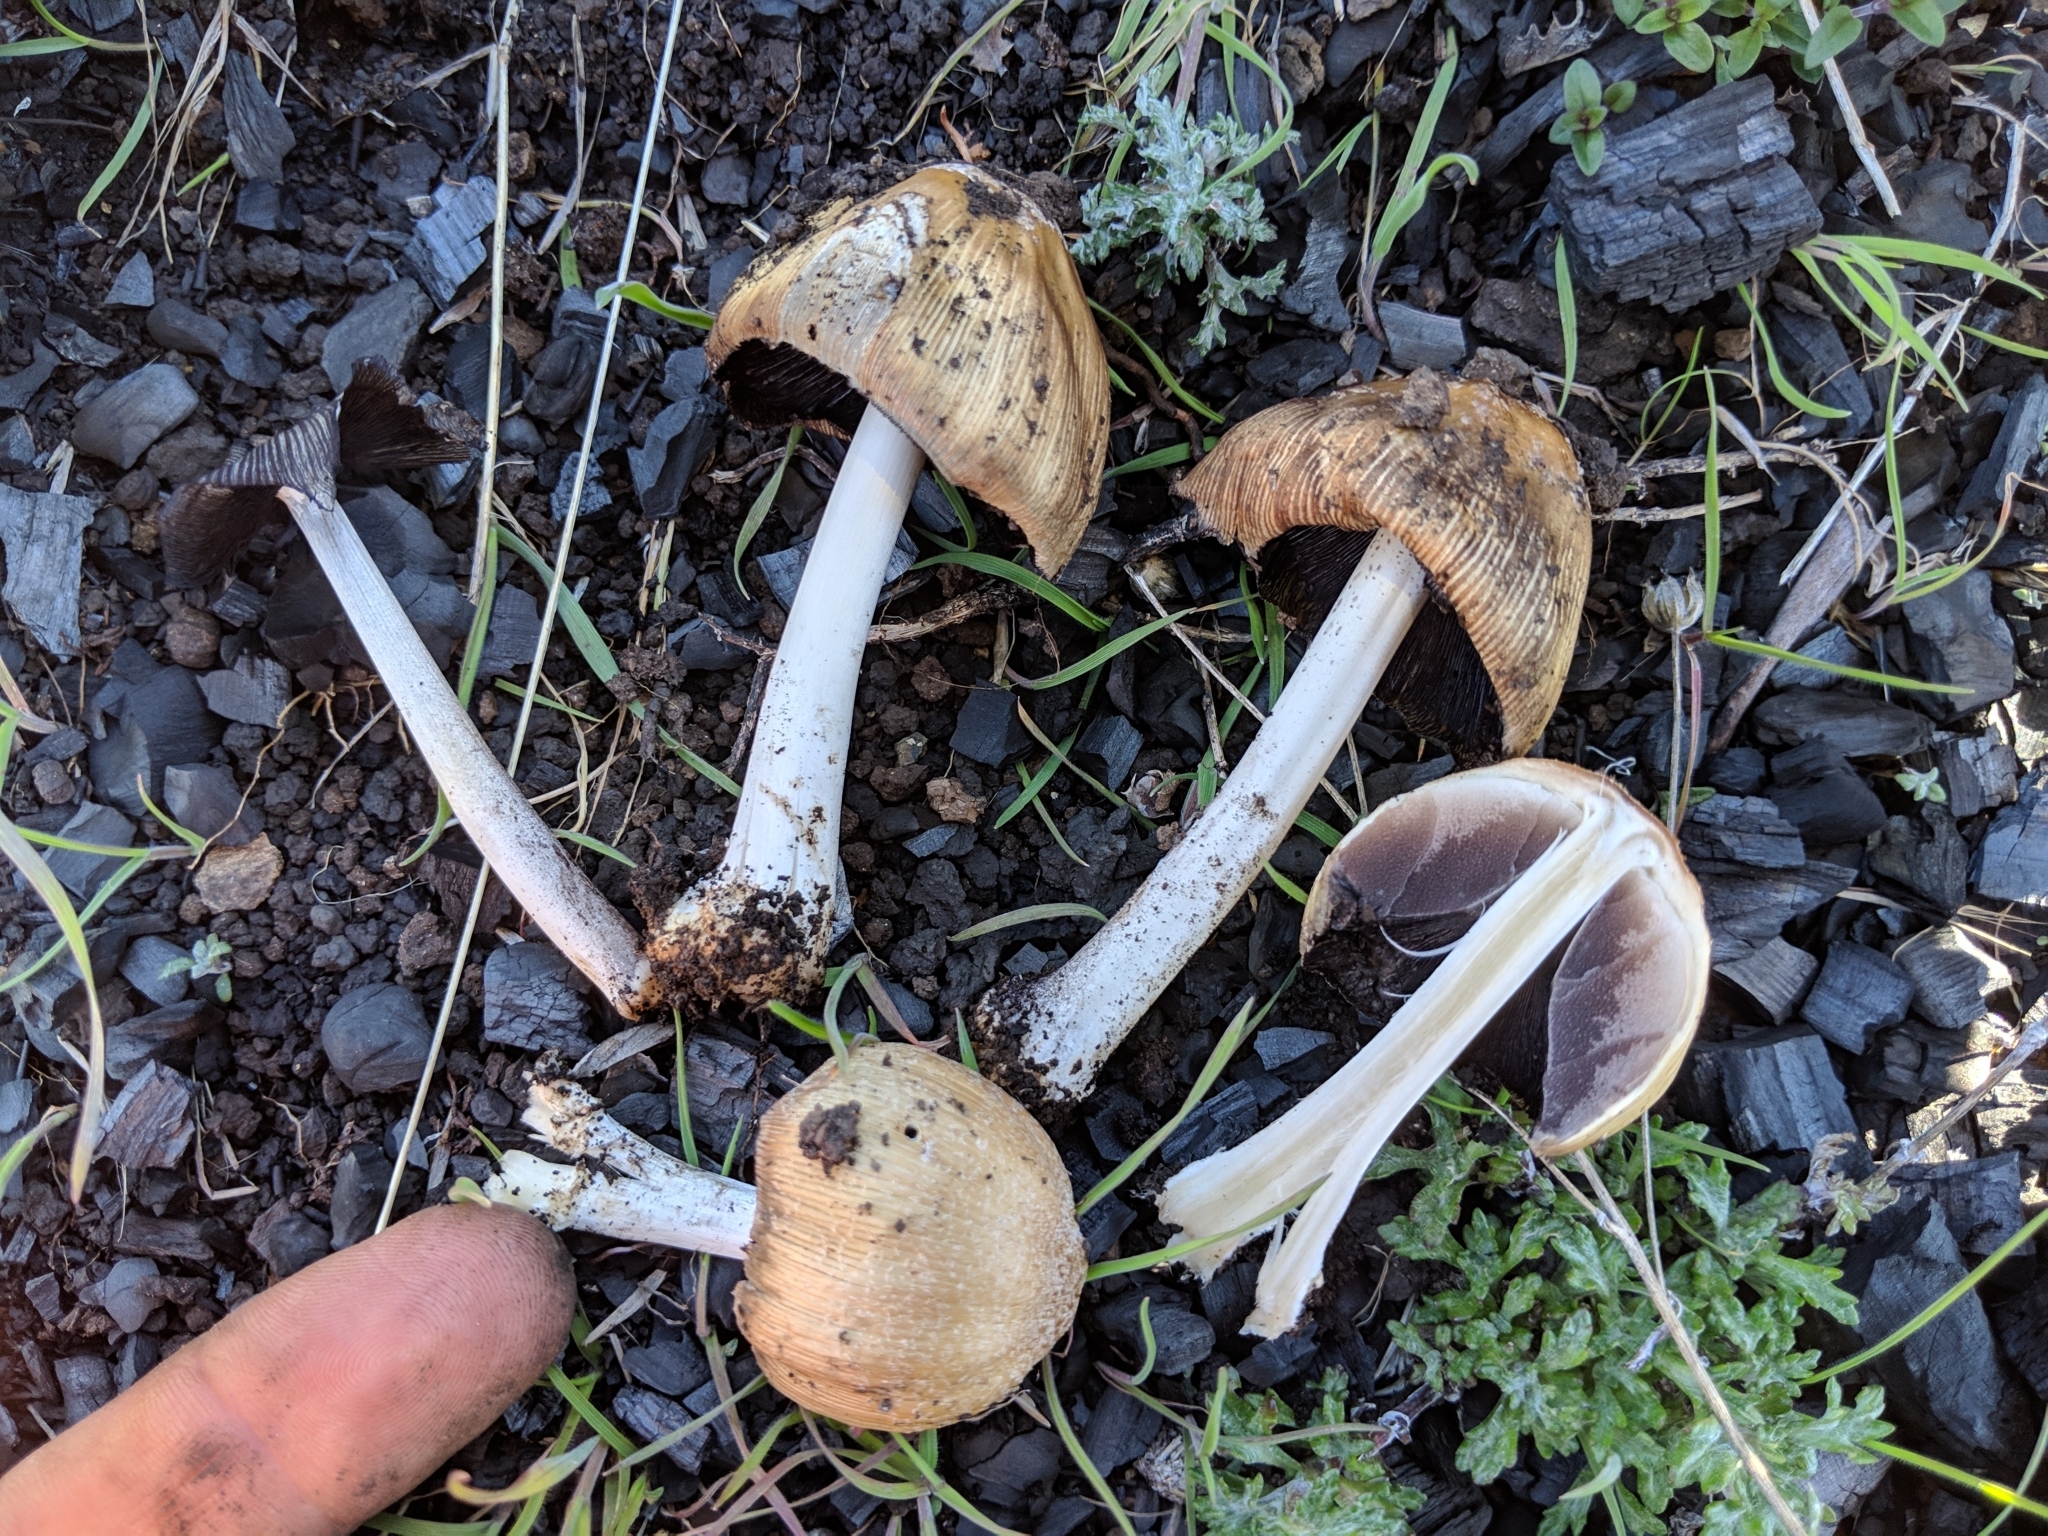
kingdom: Fungi
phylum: Basidiomycota
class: Agaricomycetes
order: Agaricales
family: Psathyrellaceae
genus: Coprinellus
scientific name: Coprinellus flocculosus
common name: Flocculose inkcap
